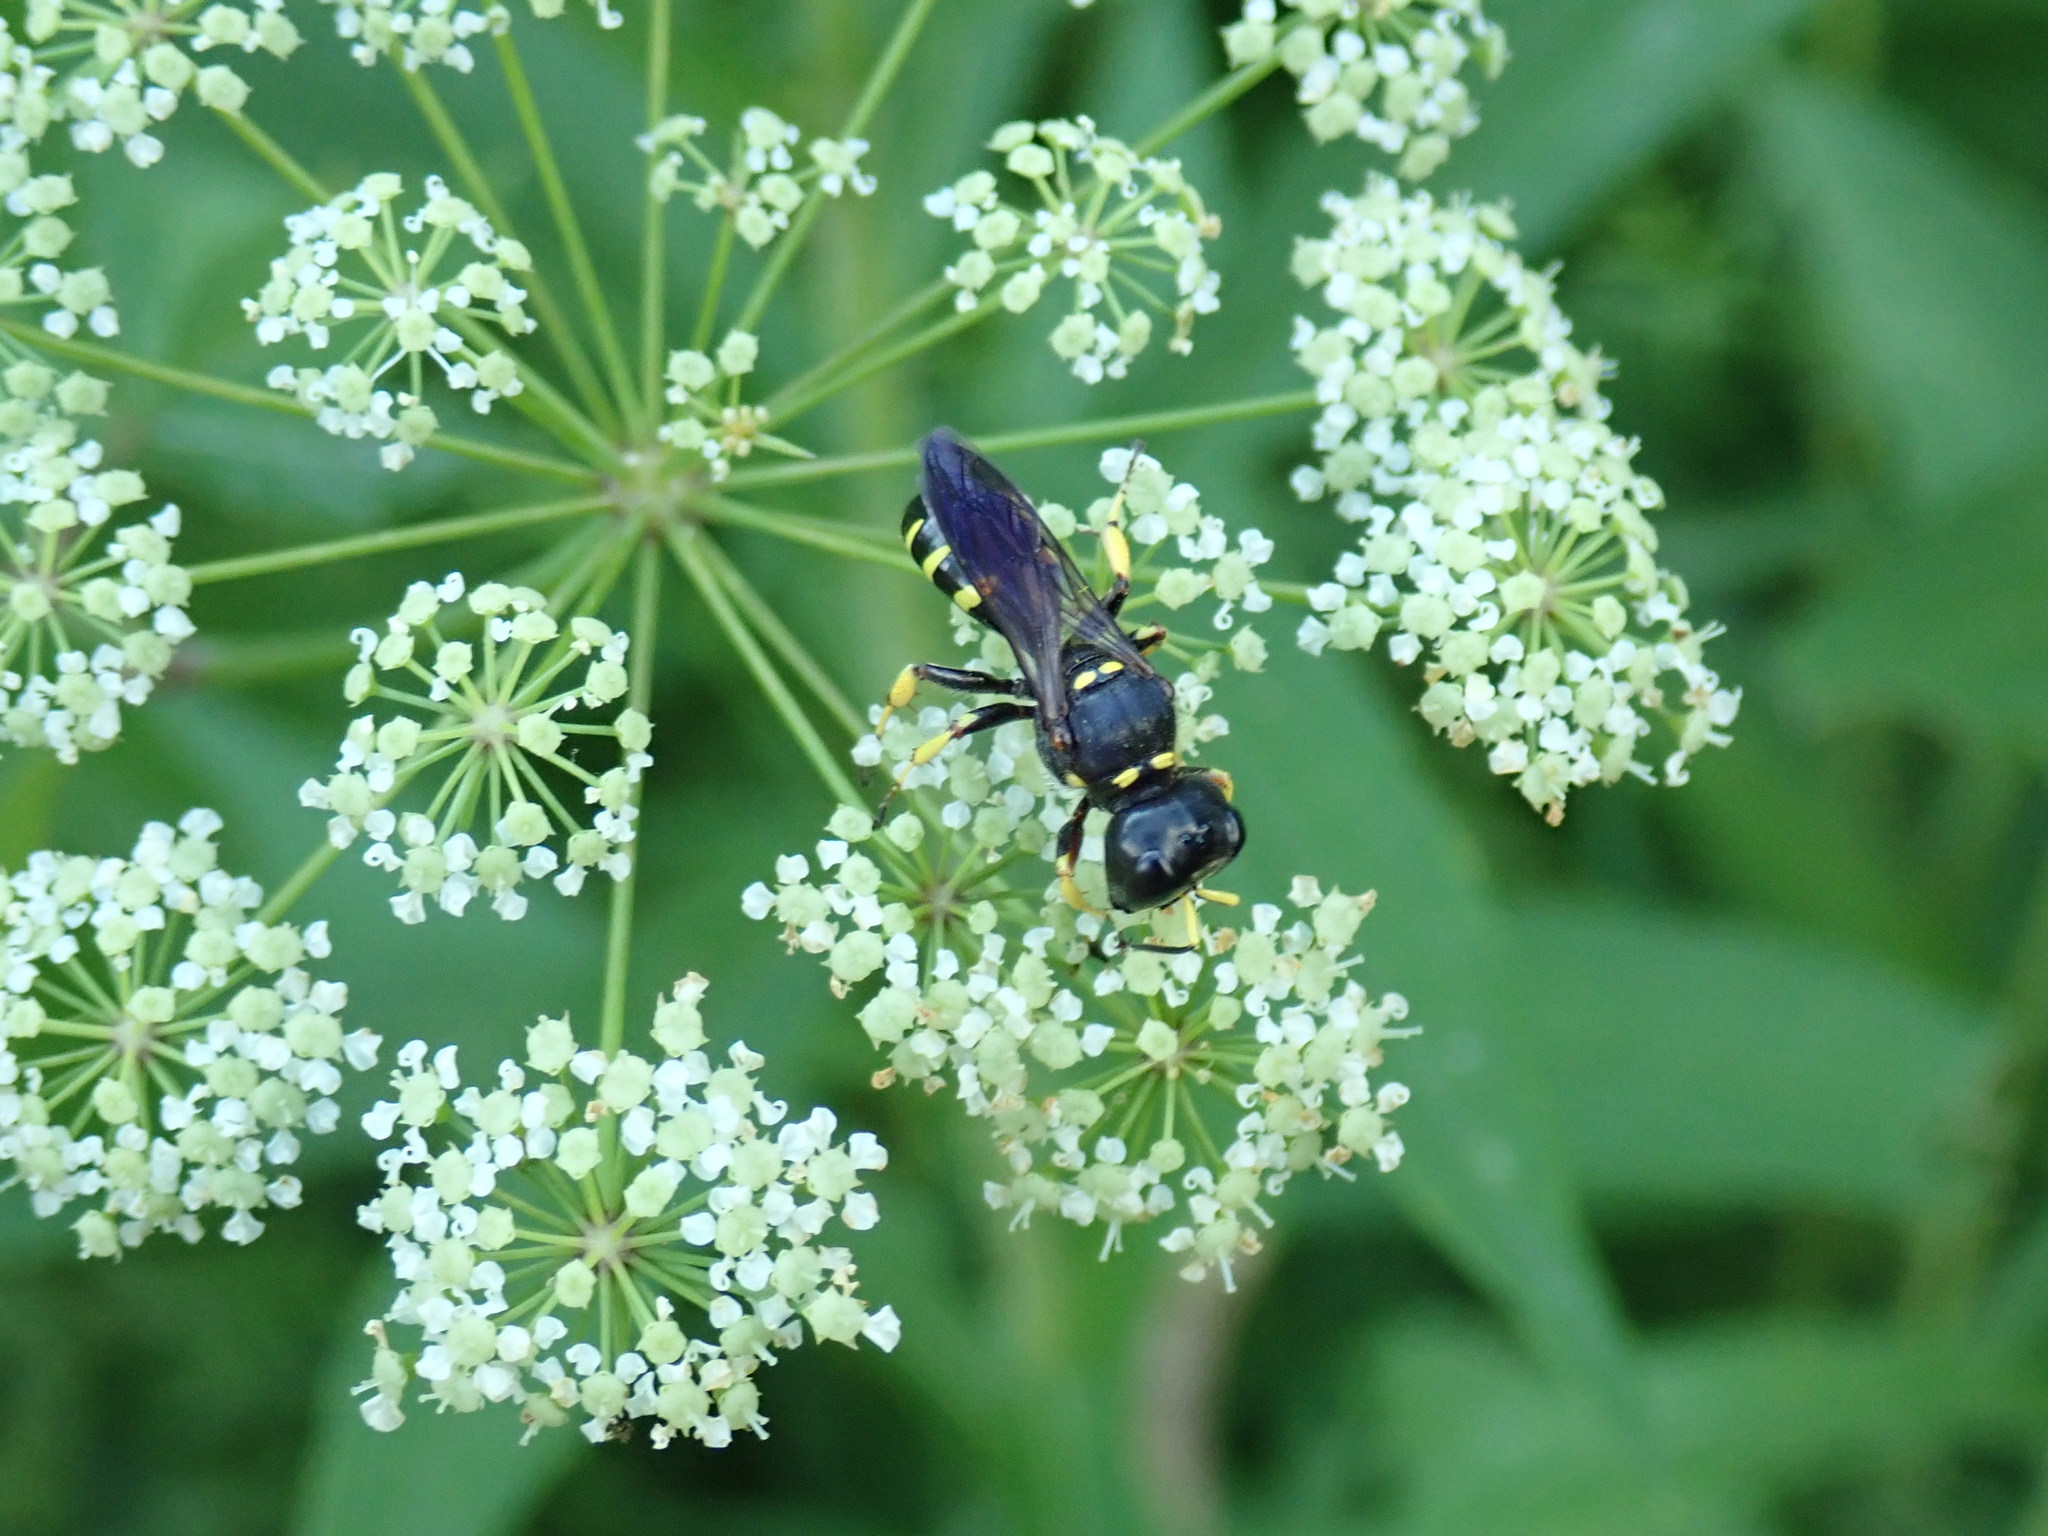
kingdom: Animalia
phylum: Arthropoda
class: Insecta
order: Hymenoptera
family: Crabronidae
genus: Ectemnius
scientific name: Ectemnius maculosus
